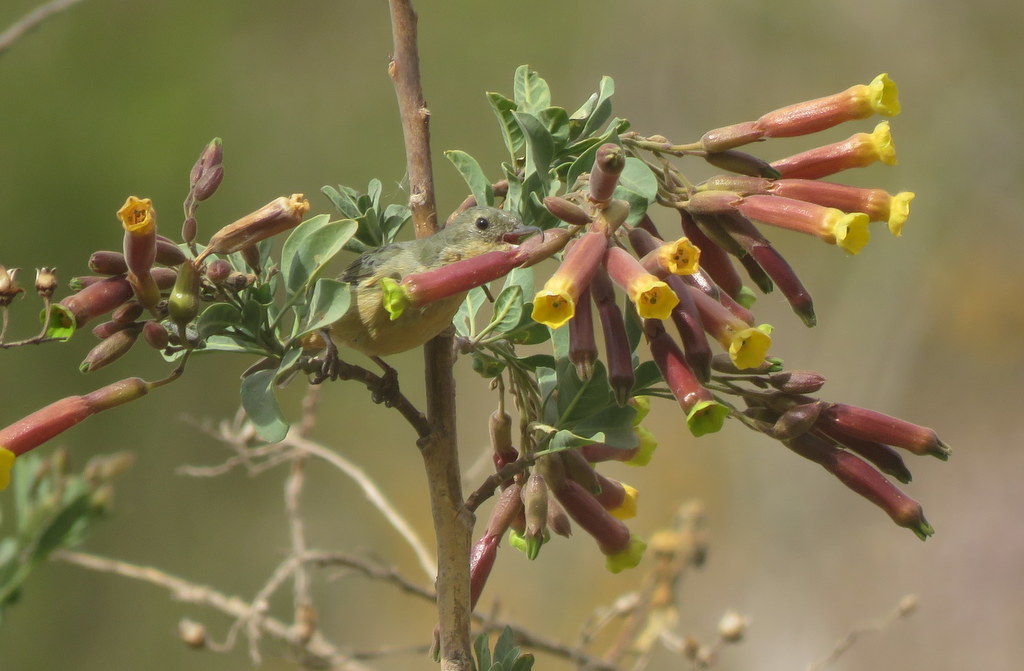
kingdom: Animalia
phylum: Chordata
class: Aves
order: Passeriformes
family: Thraupidae
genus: Diglossa
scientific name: Diglossa sittoides
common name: Rusty flowerpiercer
